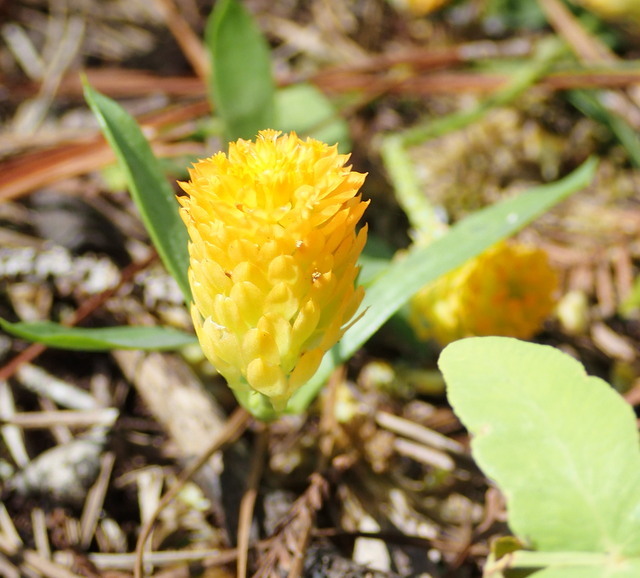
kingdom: Plantae
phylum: Tracheophyta
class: Magnoliopsida
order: Fabales
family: Polygalaceae
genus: Polygala
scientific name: Polygala lutea
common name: Orange milkwort
